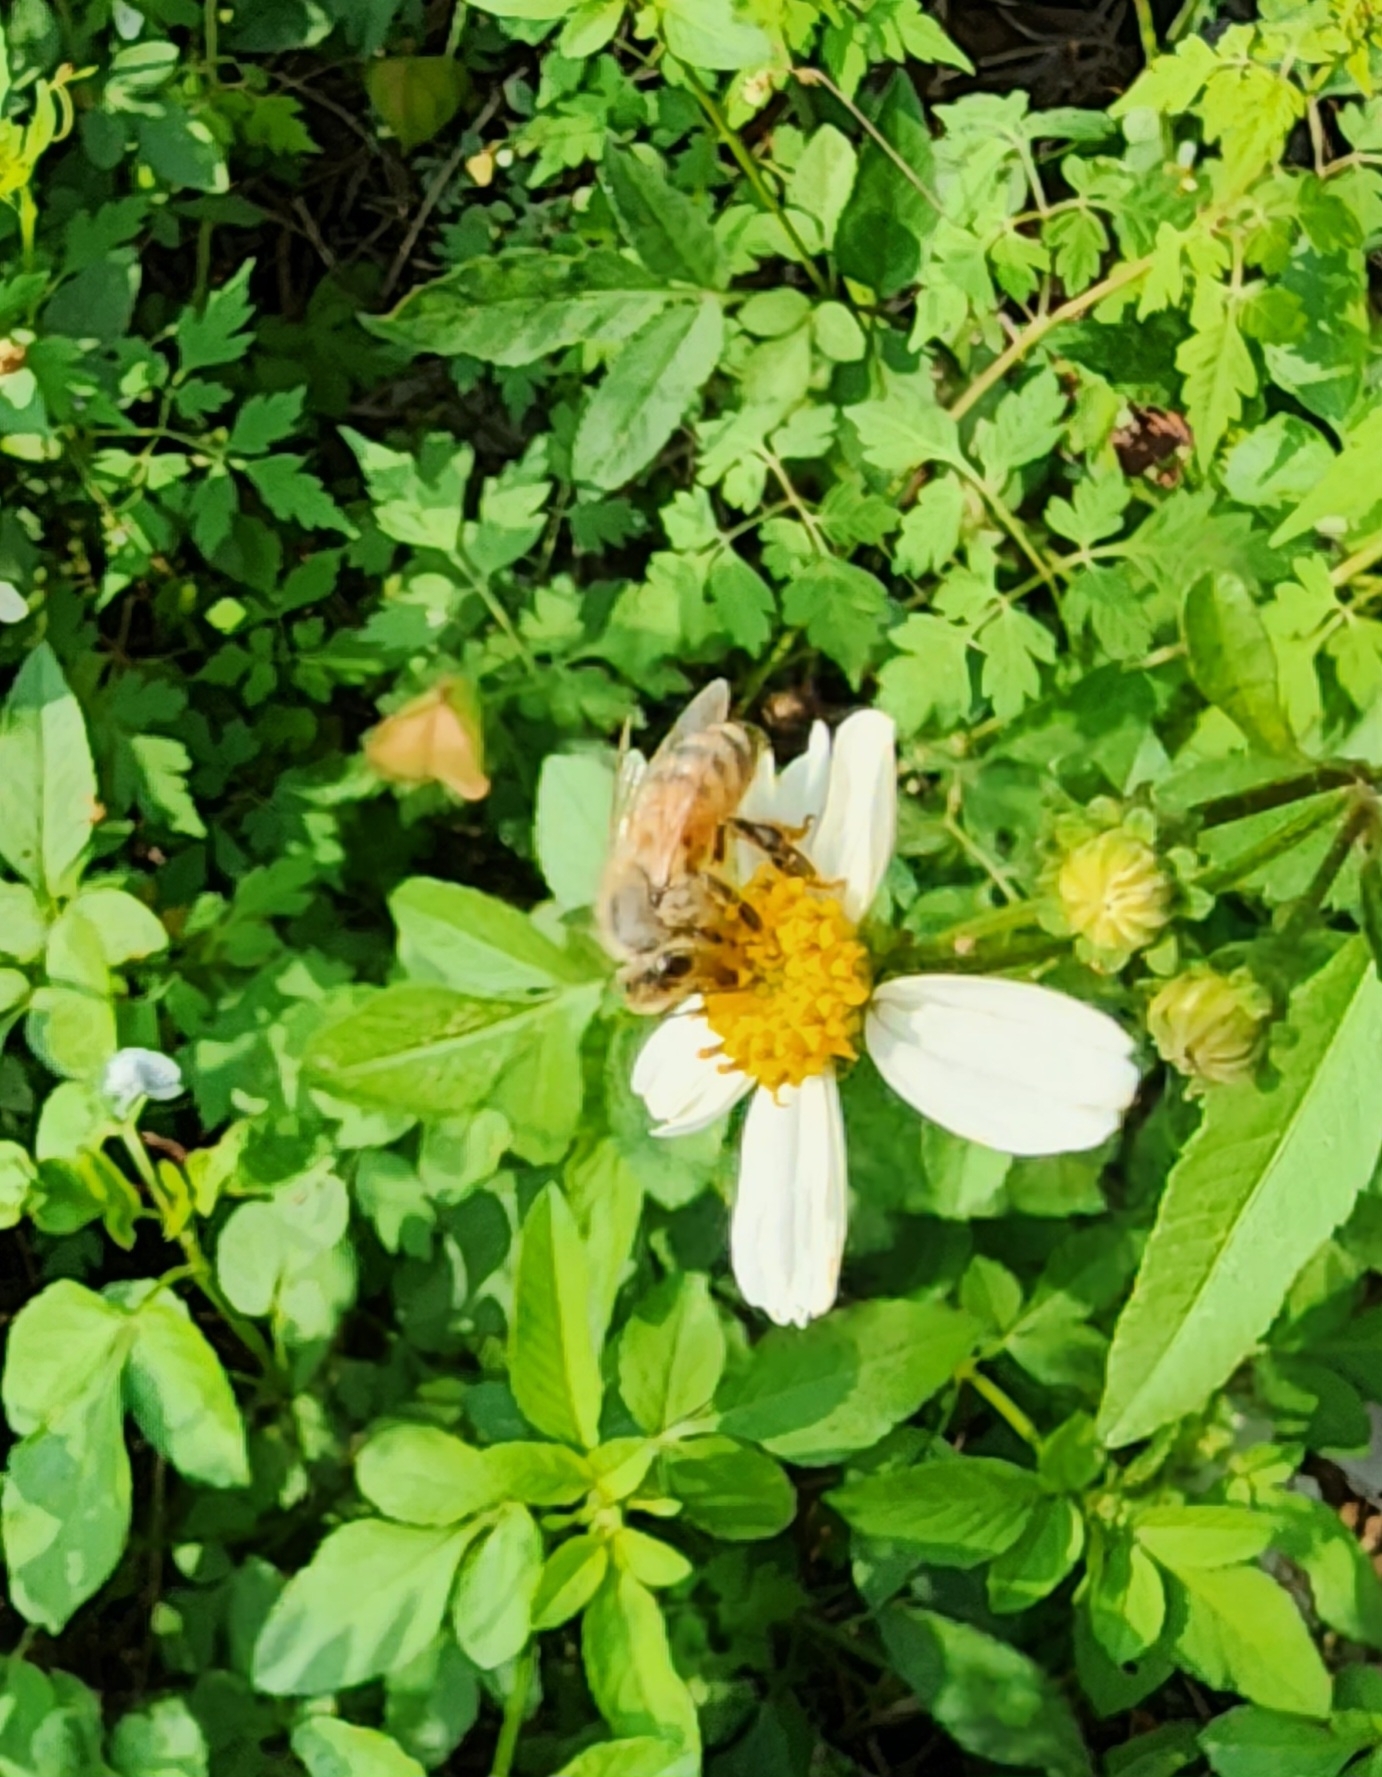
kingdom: Animalia
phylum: Arthropoda
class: Insecta
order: Hymenoptera
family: Apidae
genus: Apis
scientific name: Apis mellifera
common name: Honey bee
